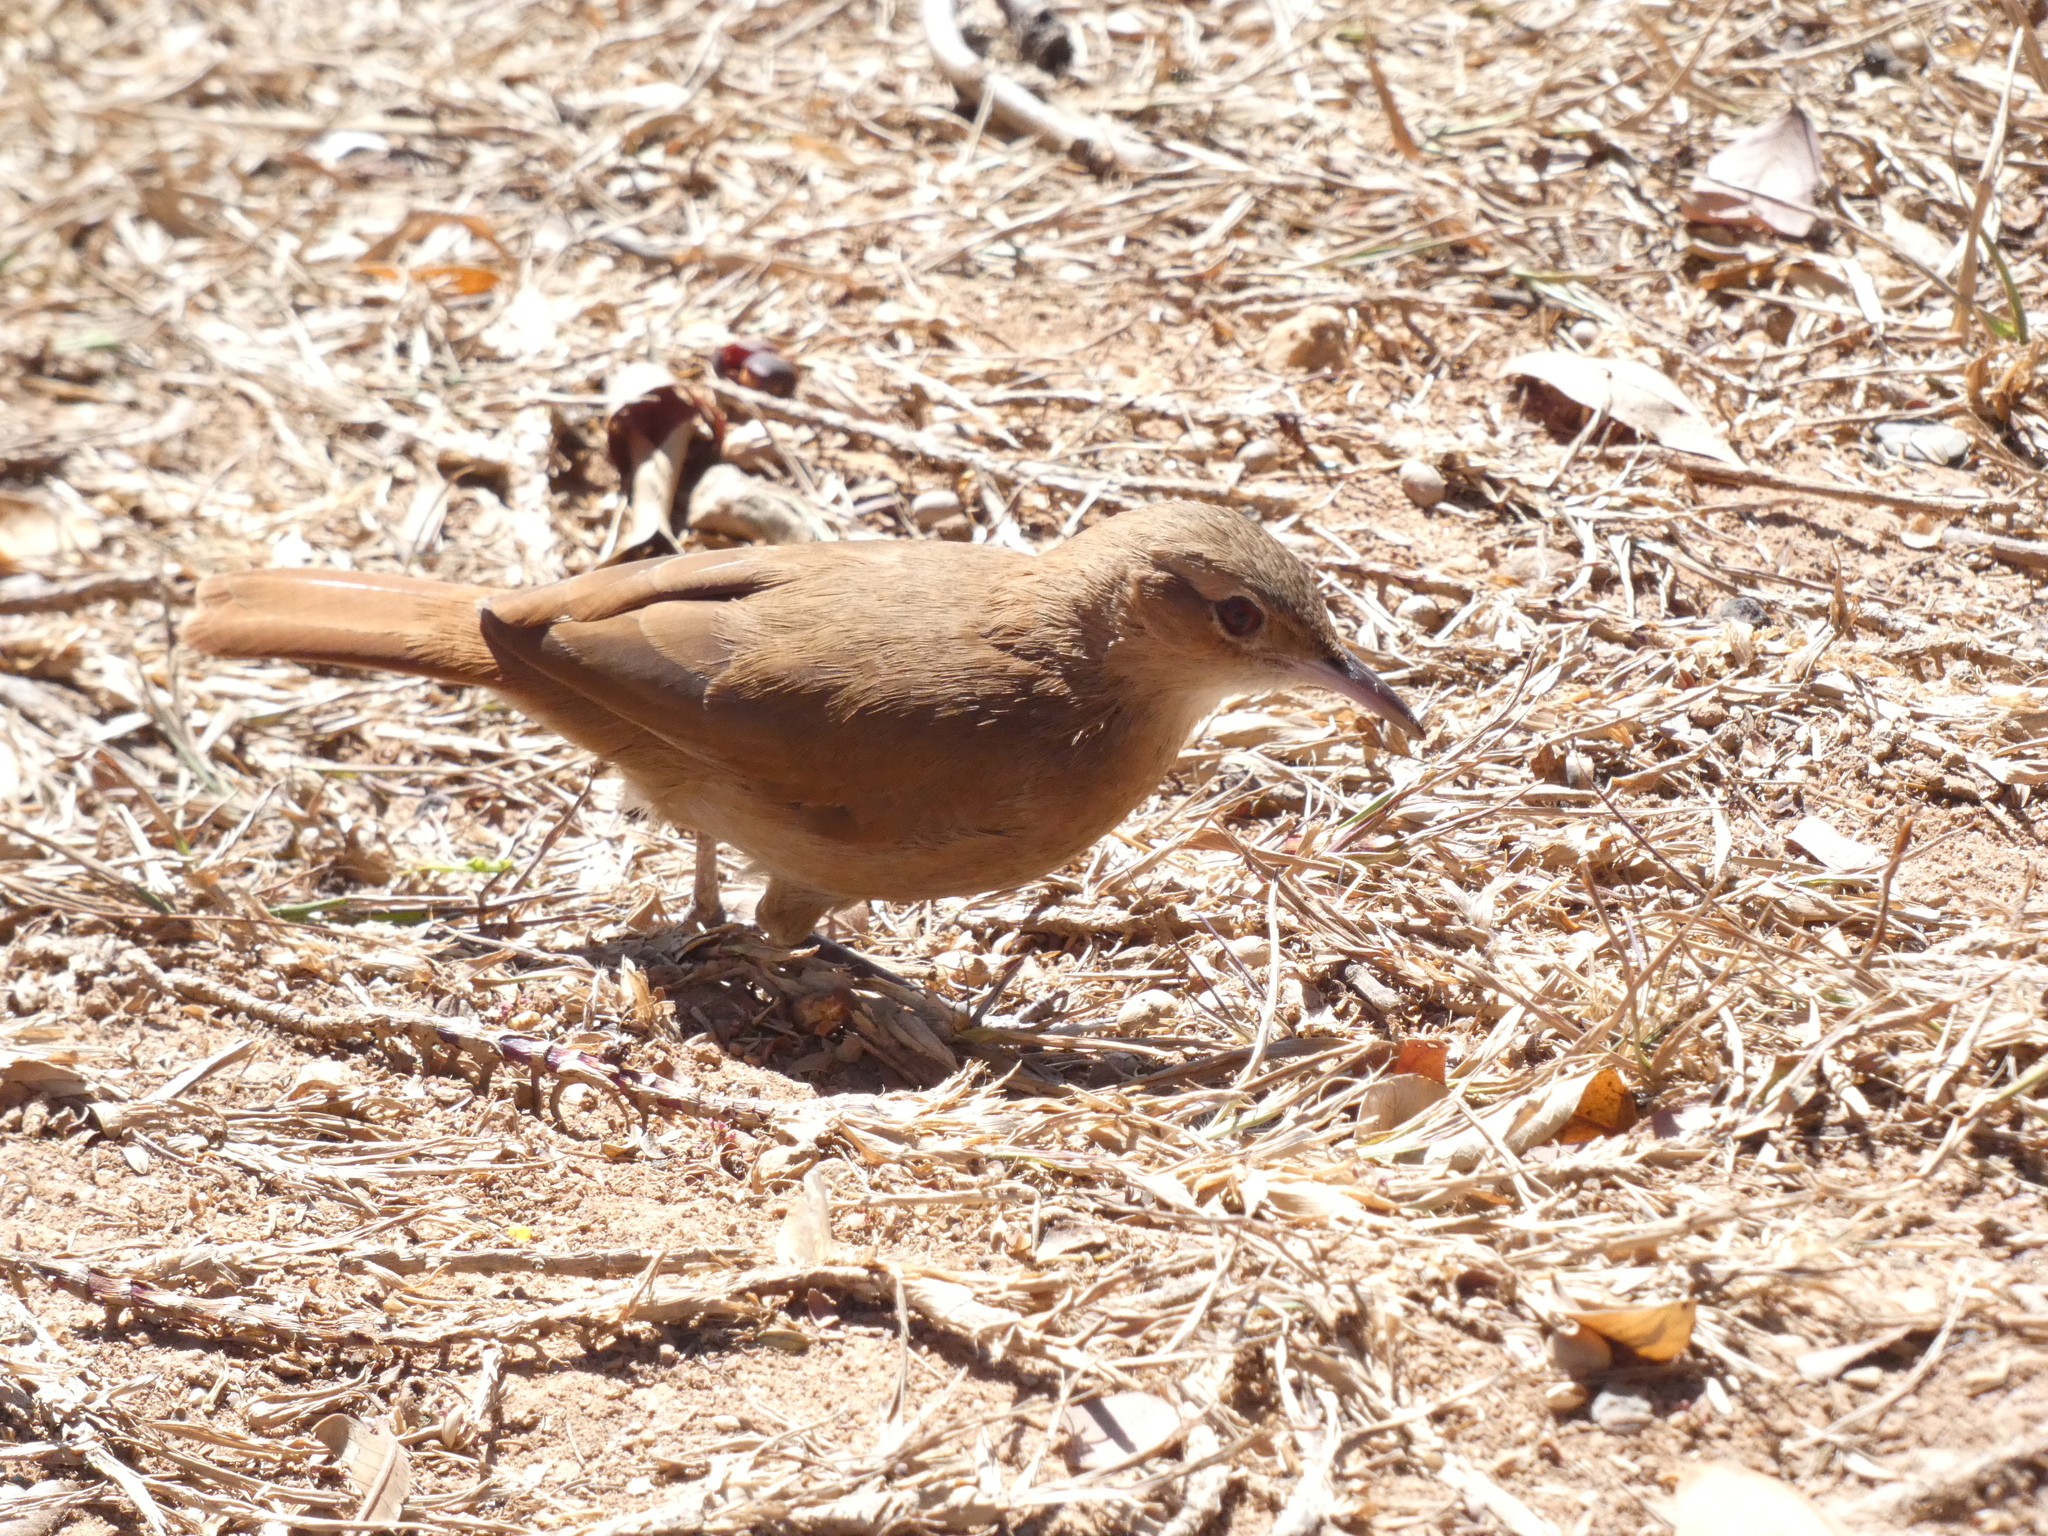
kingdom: Animalia
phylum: Chordata
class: Aves
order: Passeriformes
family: Furnariidae
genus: Furnarius
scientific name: Furnarius rufus
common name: Rufous hornero
